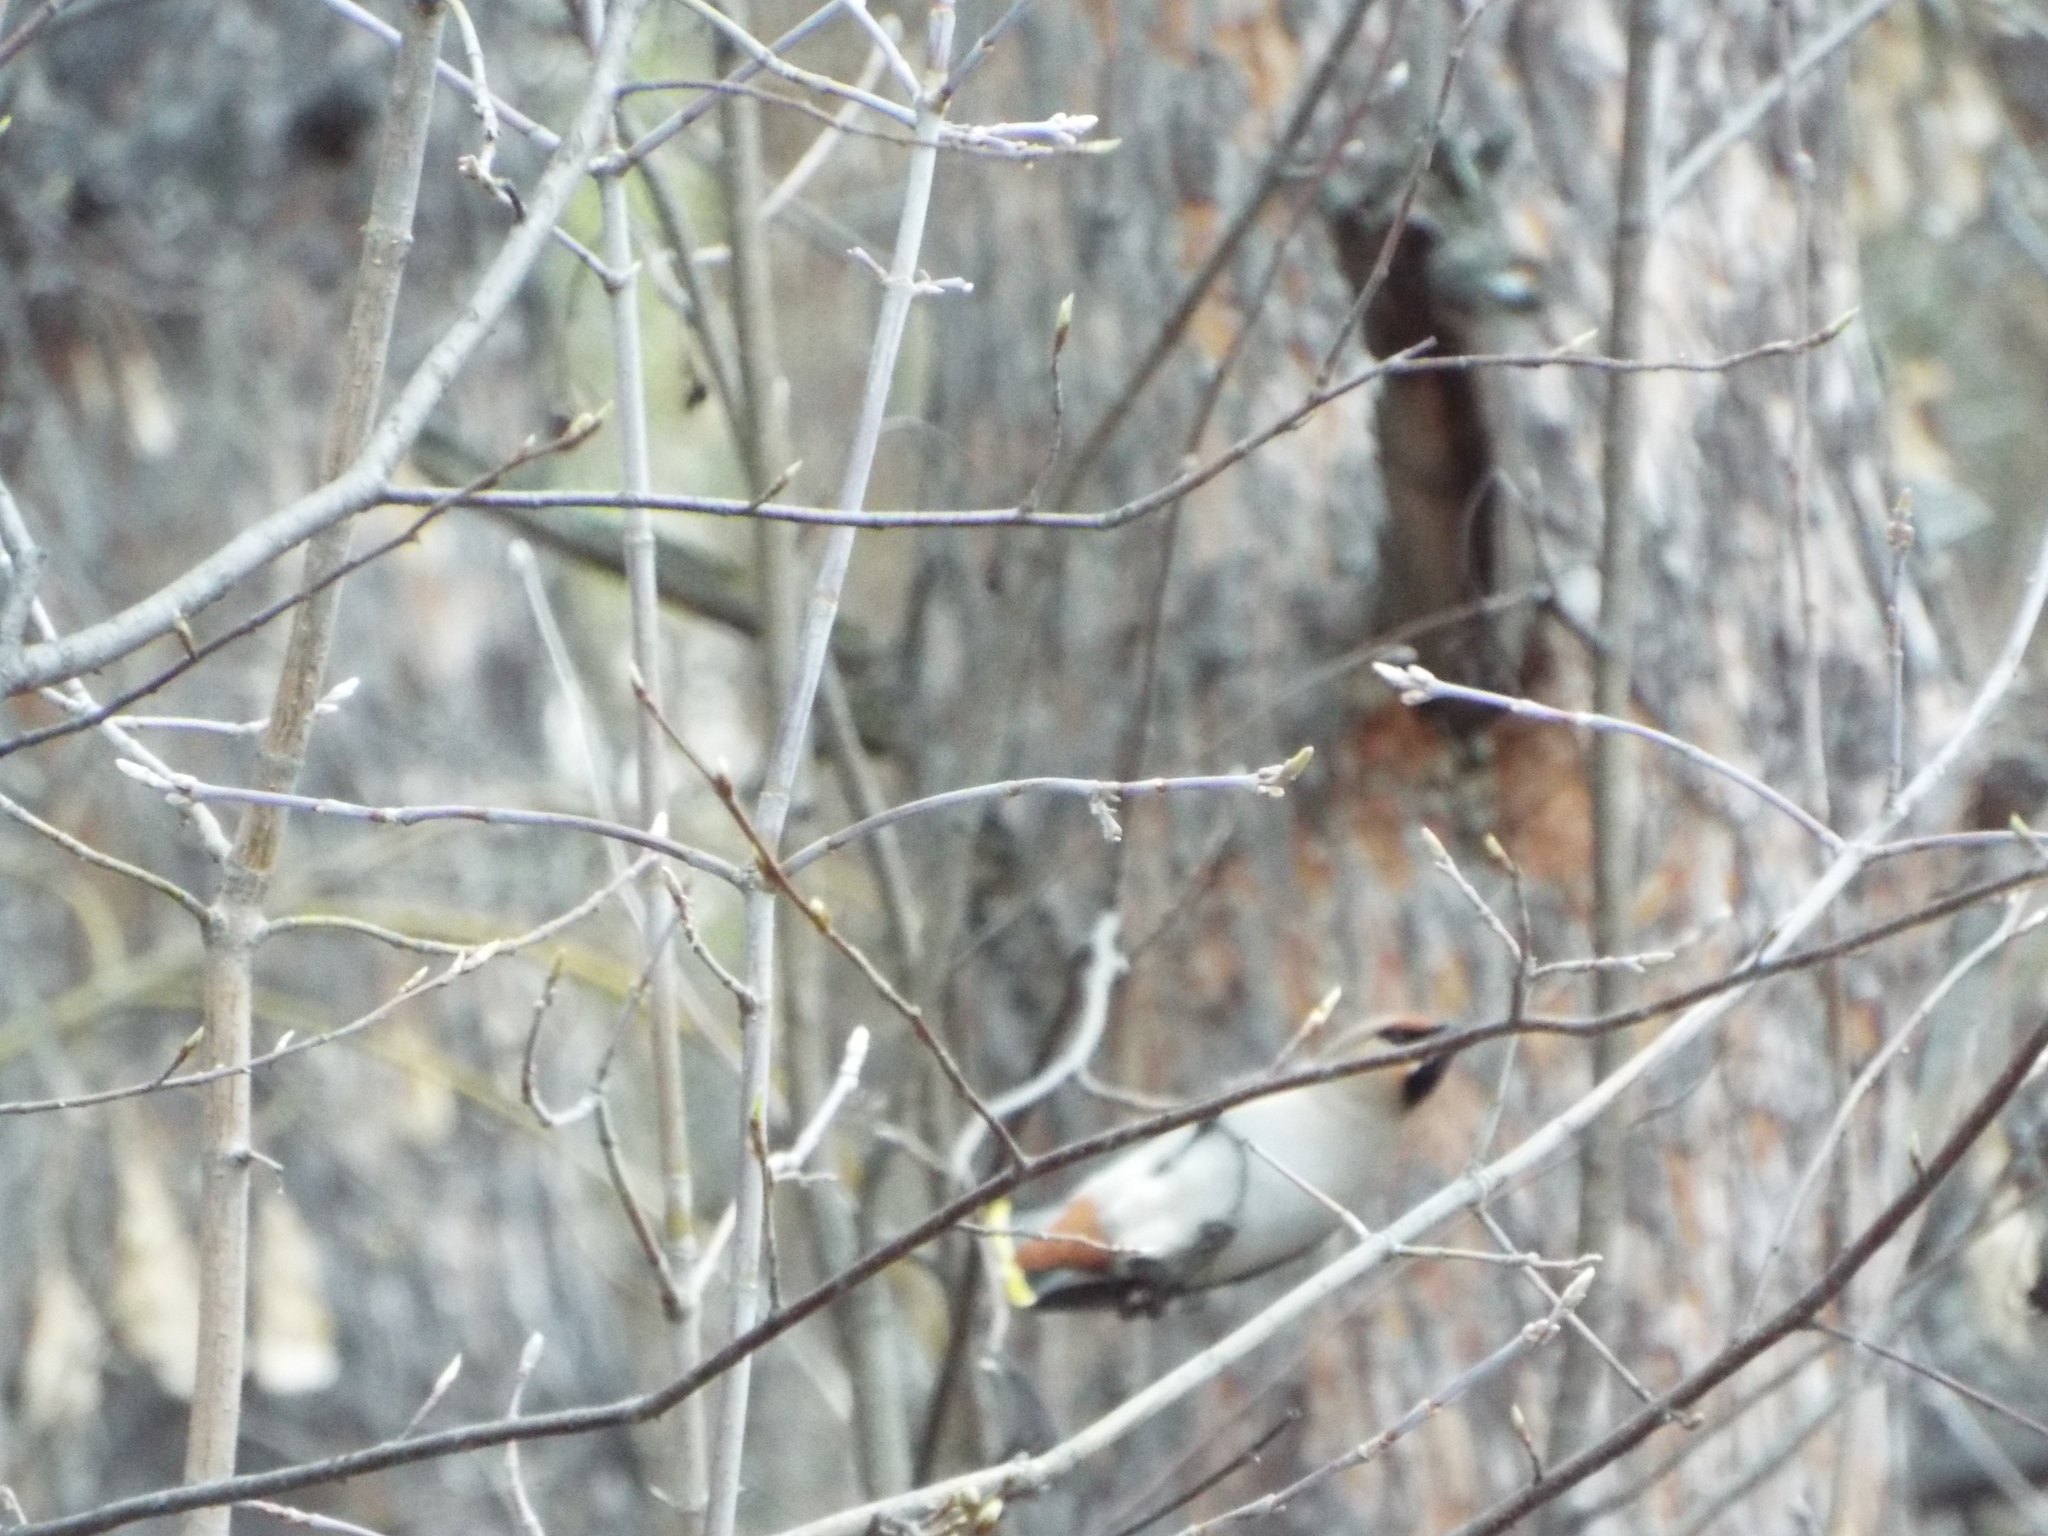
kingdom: Animalia
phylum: Chordata
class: Aves
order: Passeriformes
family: Bombycillidae
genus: Bombycilla
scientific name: Bombycilla garrulus
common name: Bohemian waxwing
